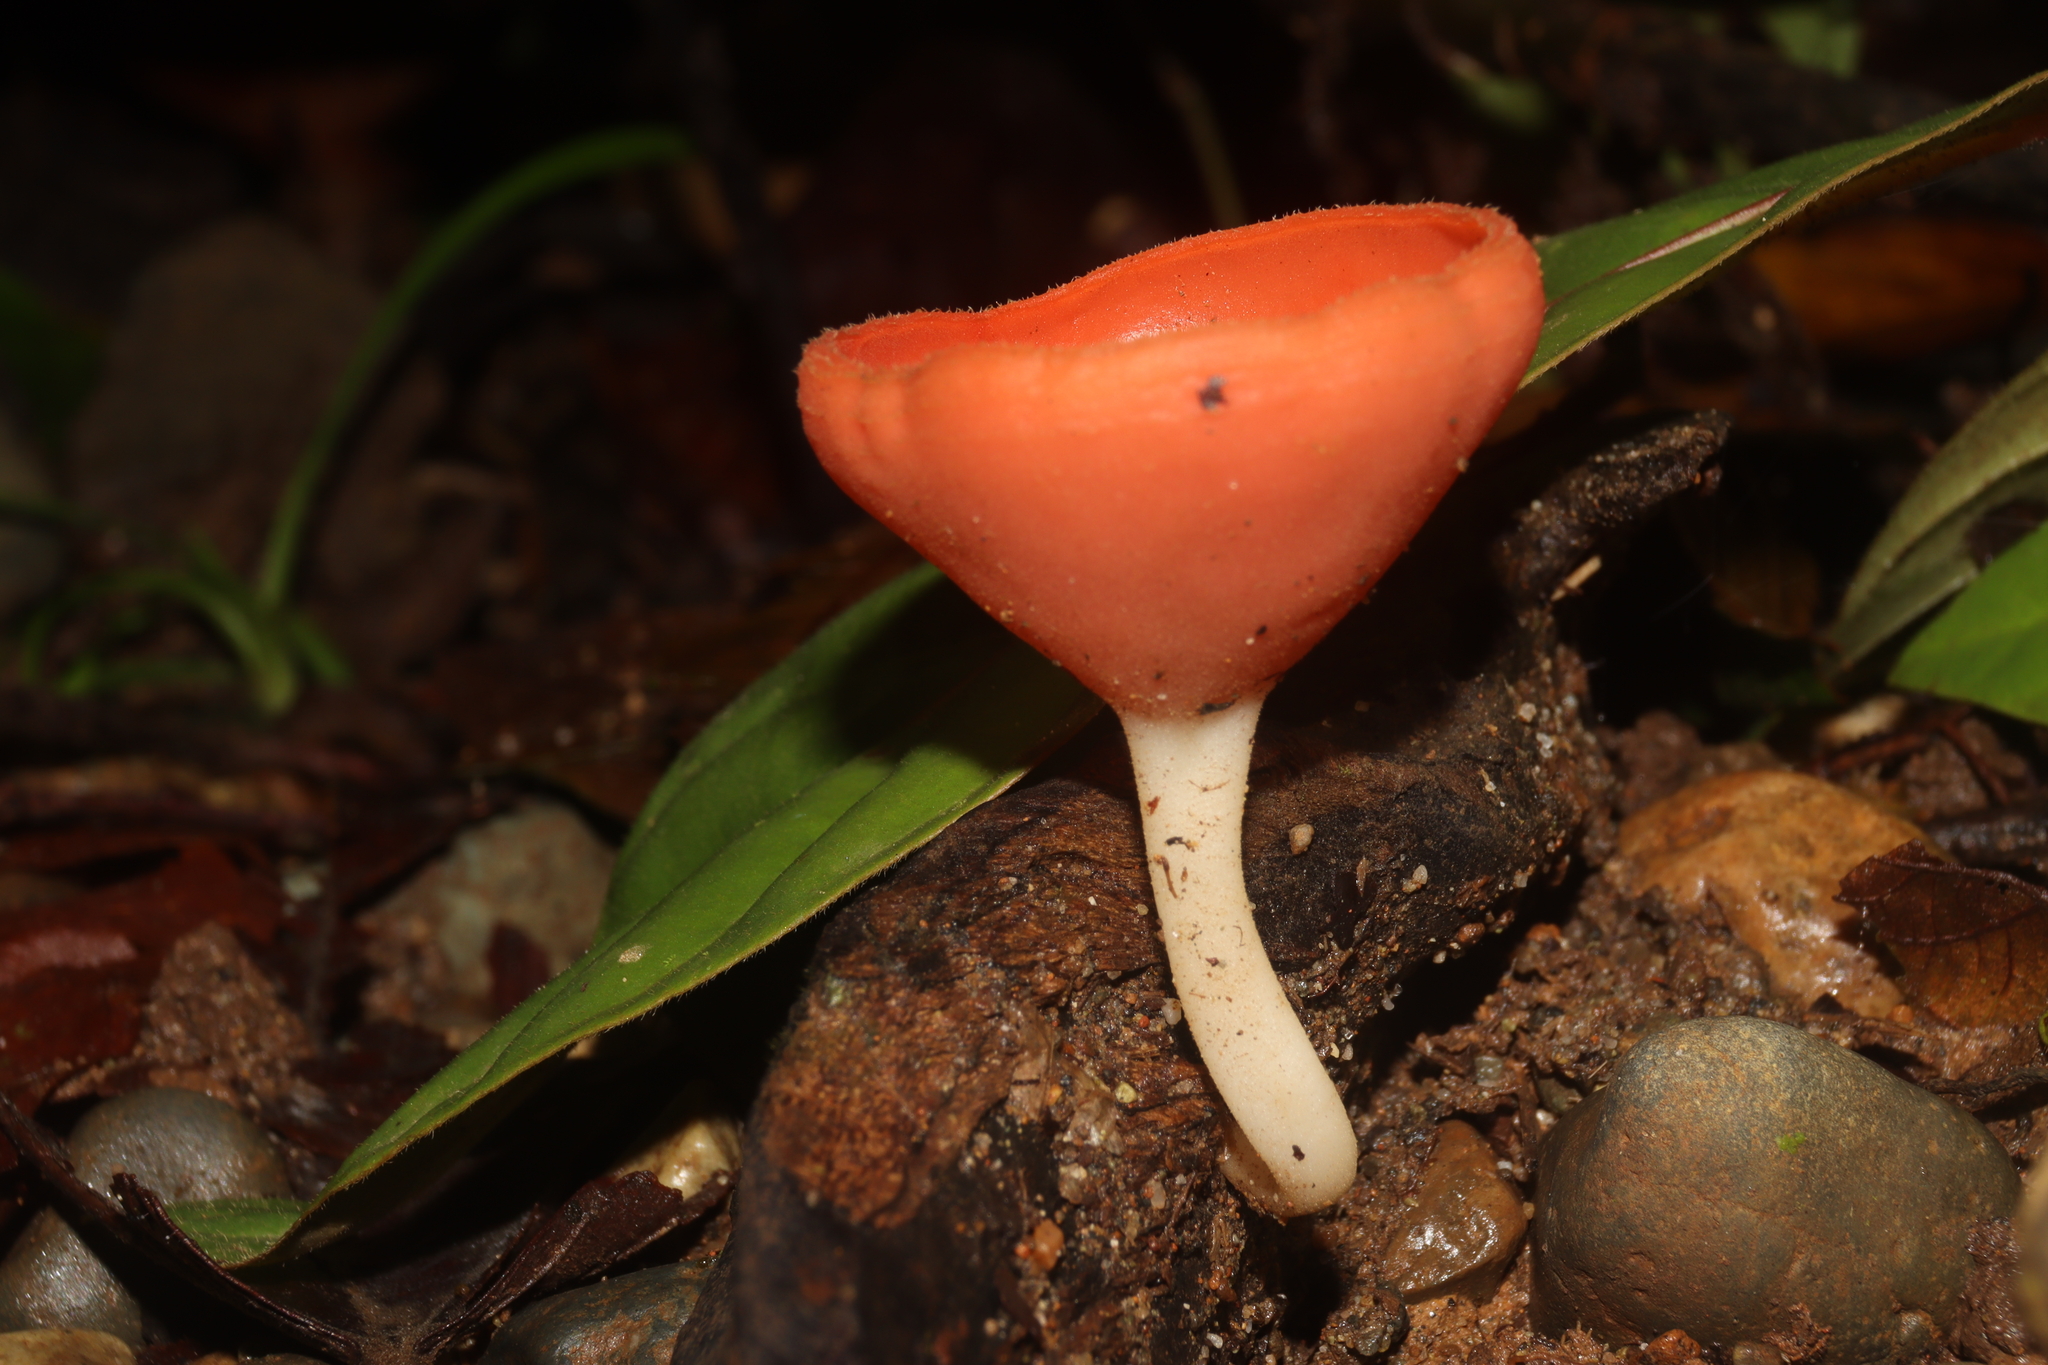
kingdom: Fungi
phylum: Ascomycota
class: Pezizomycetes
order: Pezizales
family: Sarcoscyphaceae
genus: Cookeina
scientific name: Cookeina speciosa
